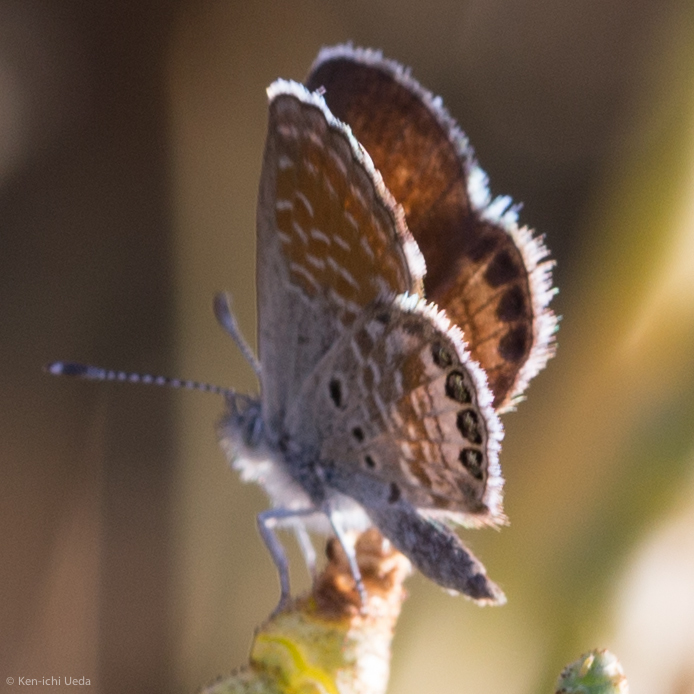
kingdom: Animalia
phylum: Arthropoda
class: Insecta
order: Lepidoptera
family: Lycaenidae
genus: Brephidium
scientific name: Brephidium exilis
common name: Pygmy blue
